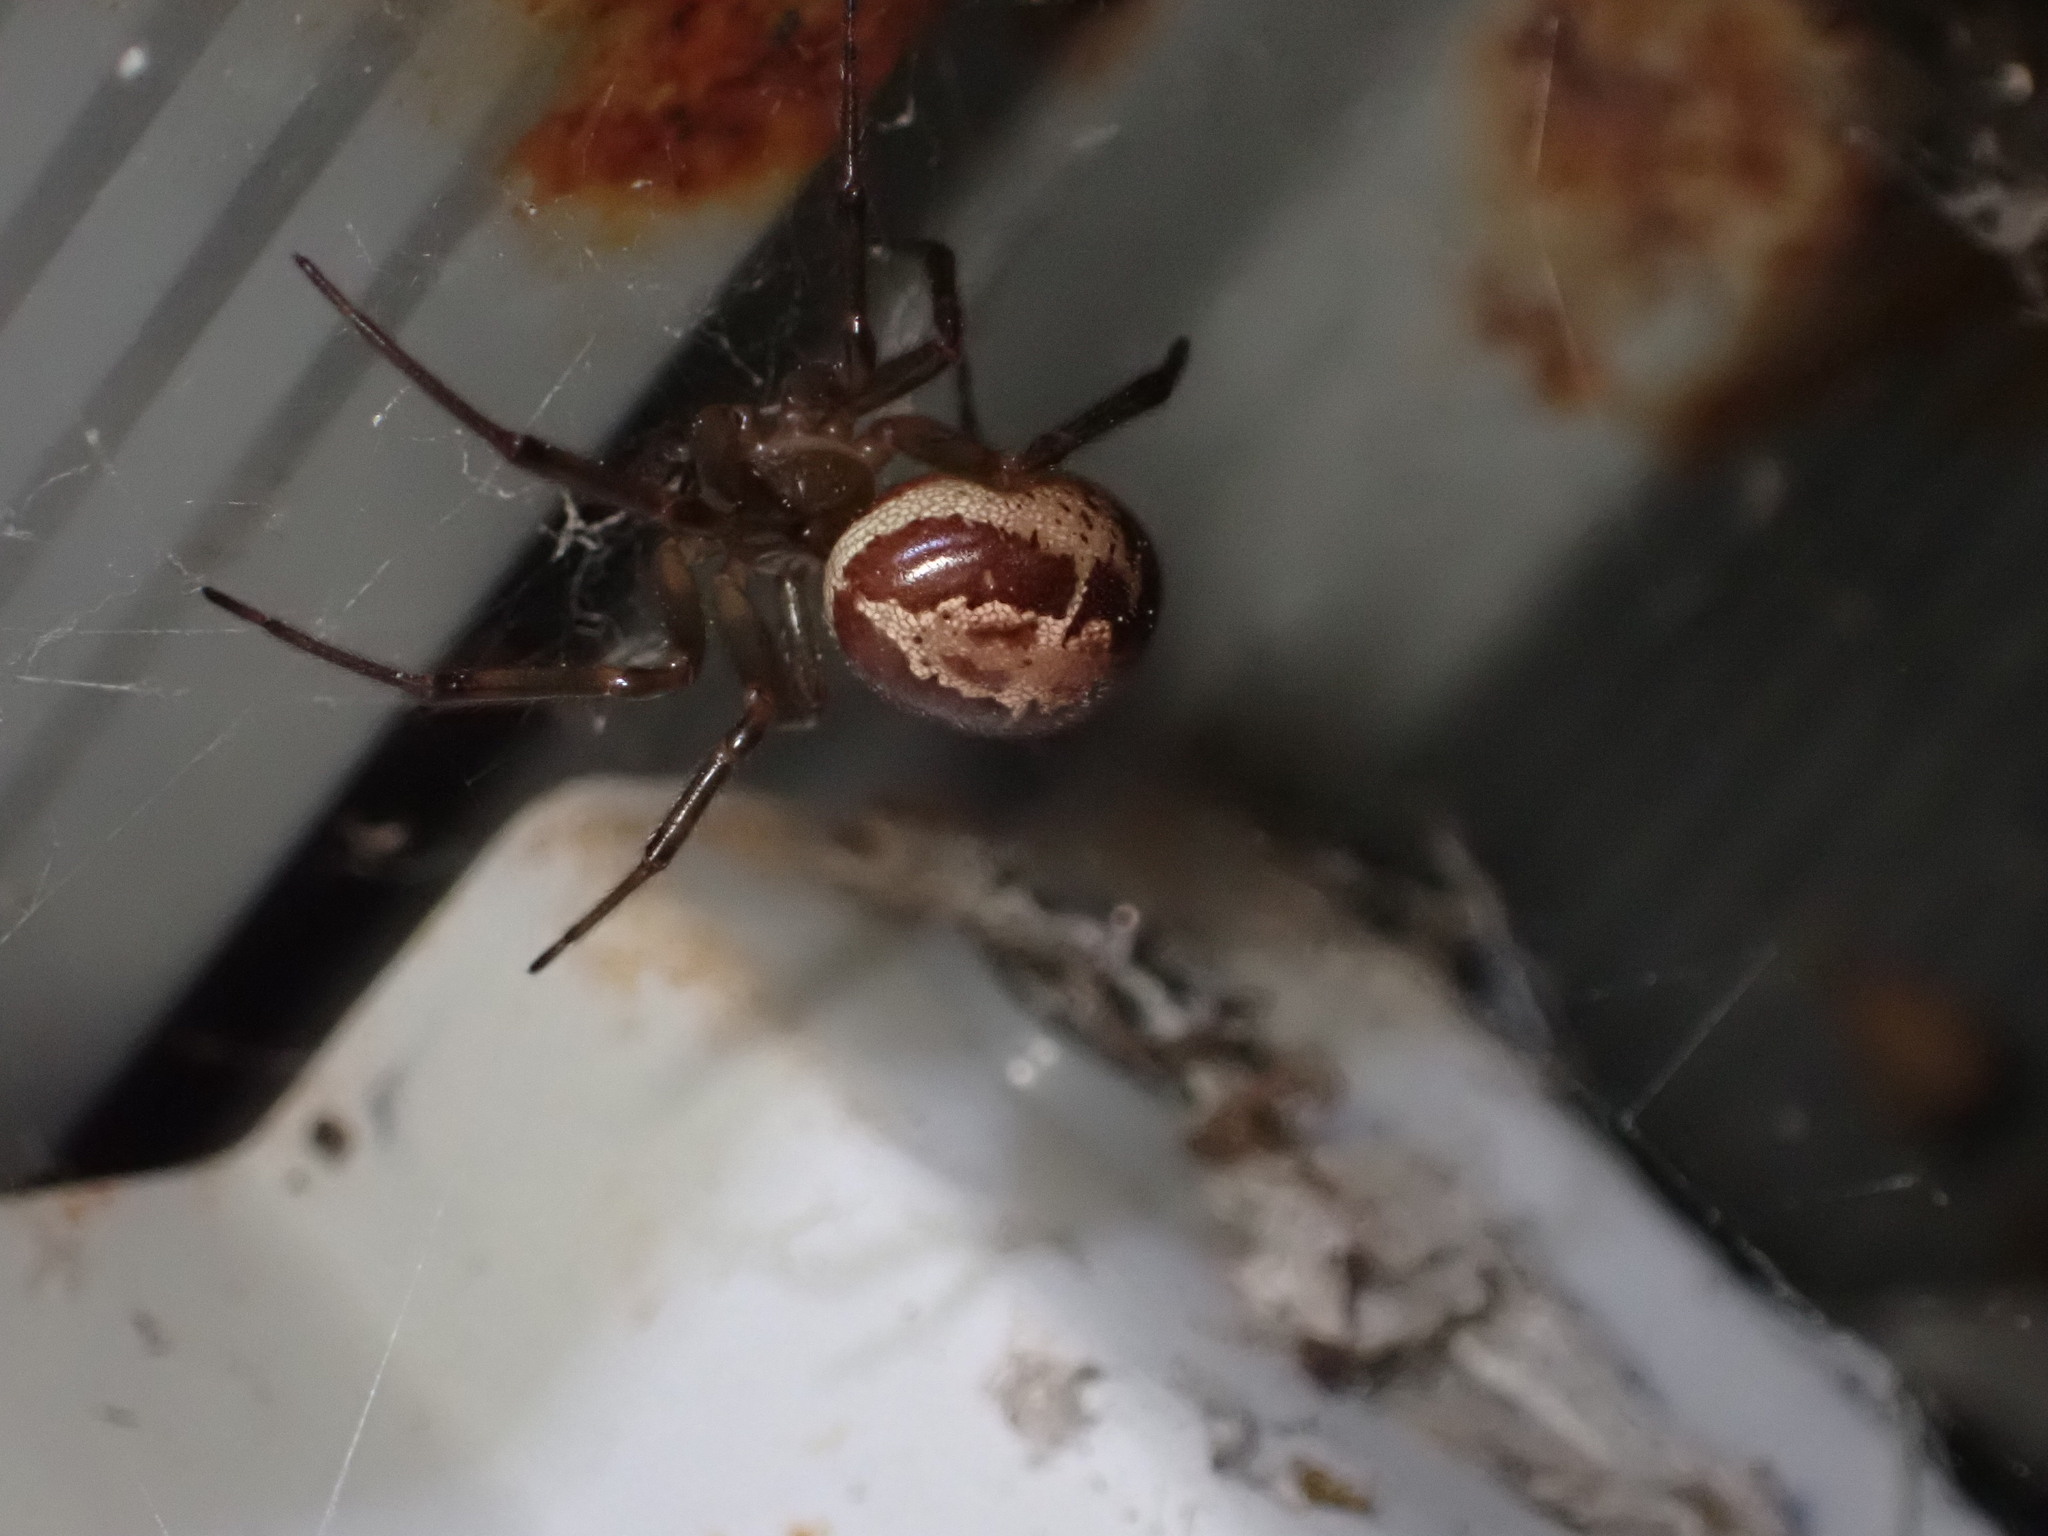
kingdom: Animalia
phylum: Arthropoda
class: Arachnida
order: Araneae
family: Theridiidae
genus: Steatoda
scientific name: Steatoda nobilis
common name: Cobweb weaver
